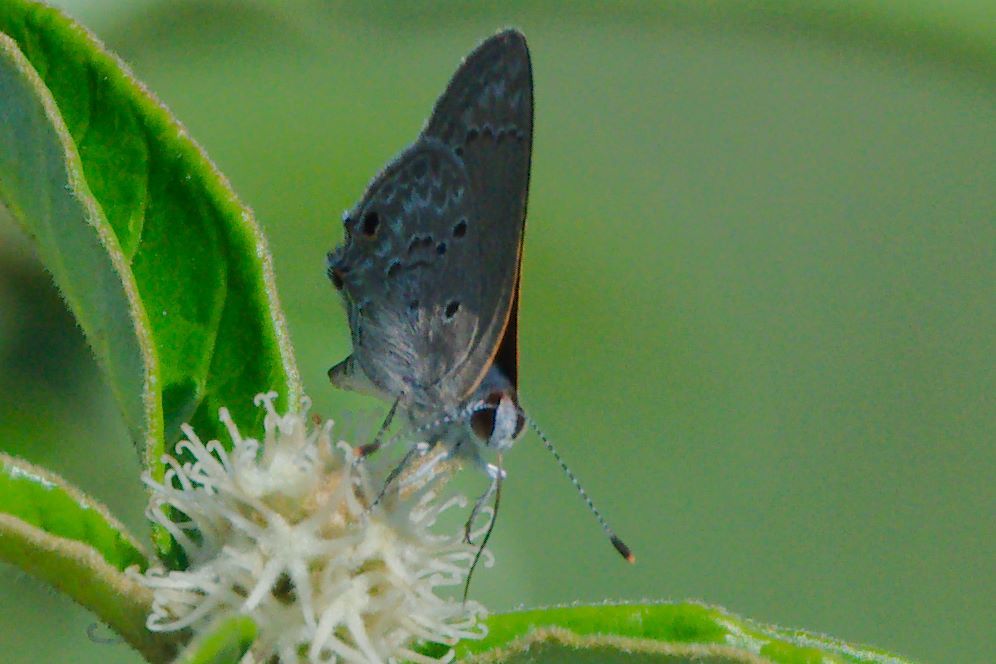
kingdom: Animalia
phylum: Arthropoda
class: Insecta
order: Lepidoptera
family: Lycaenidae
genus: Callicista
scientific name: Callicista columella
